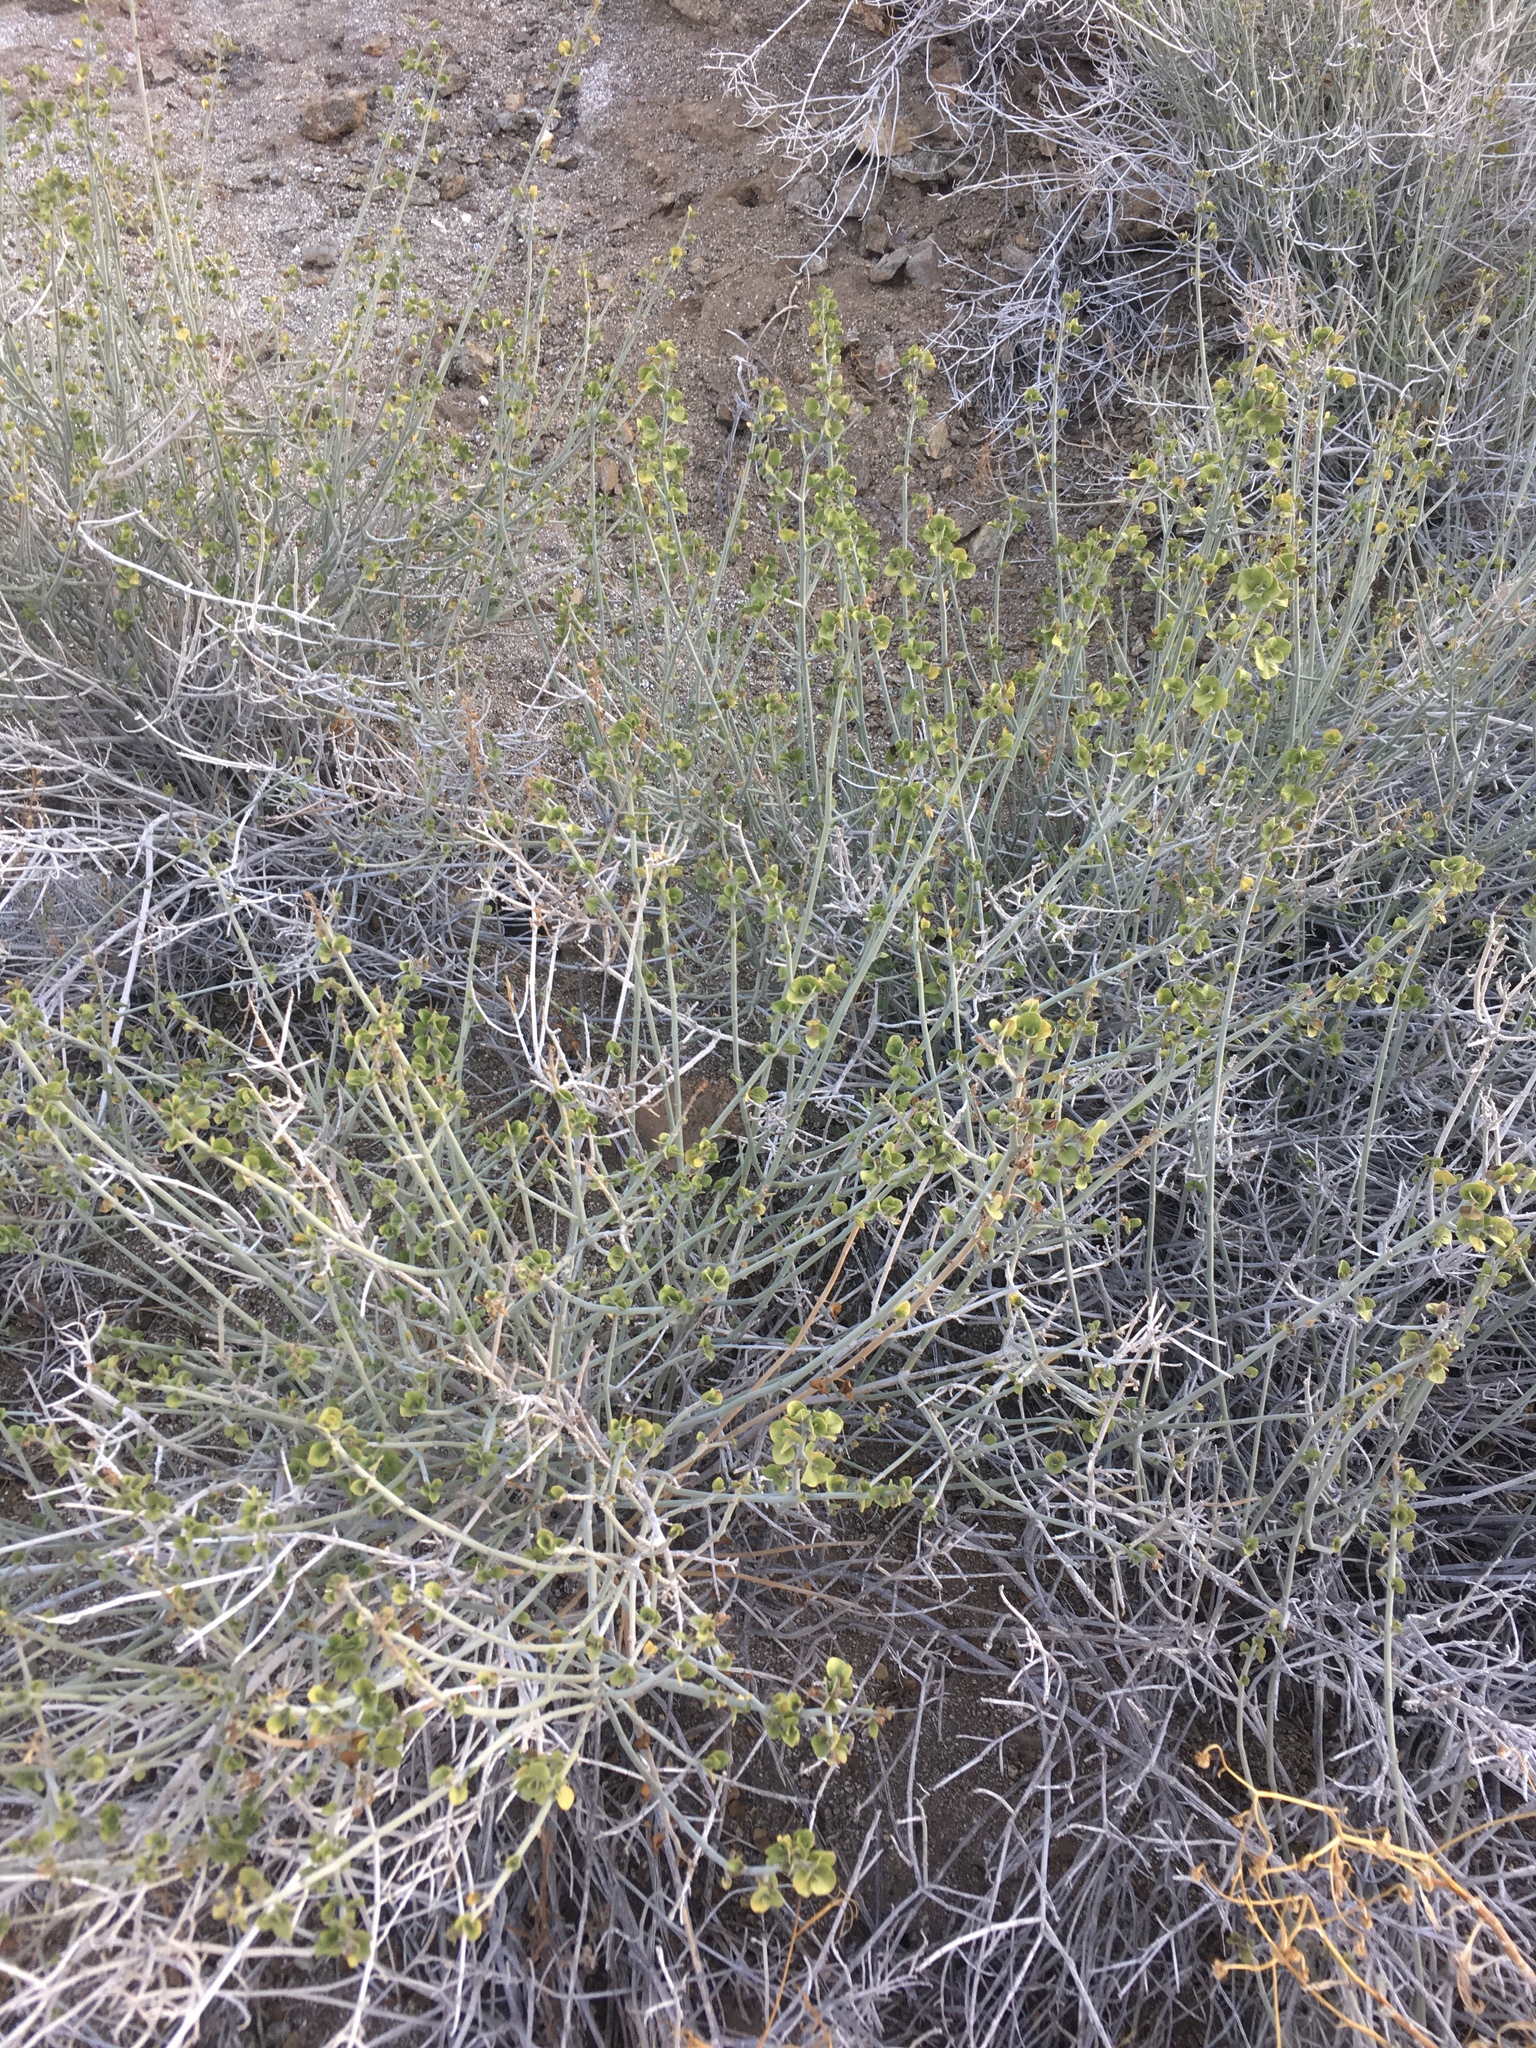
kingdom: Plantae
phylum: Tracheophyta
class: Magnoliopsida
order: Lamiales
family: Acanthaceae
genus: Justicia
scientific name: Justicia californica
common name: Chuparosa-honeysuckle
